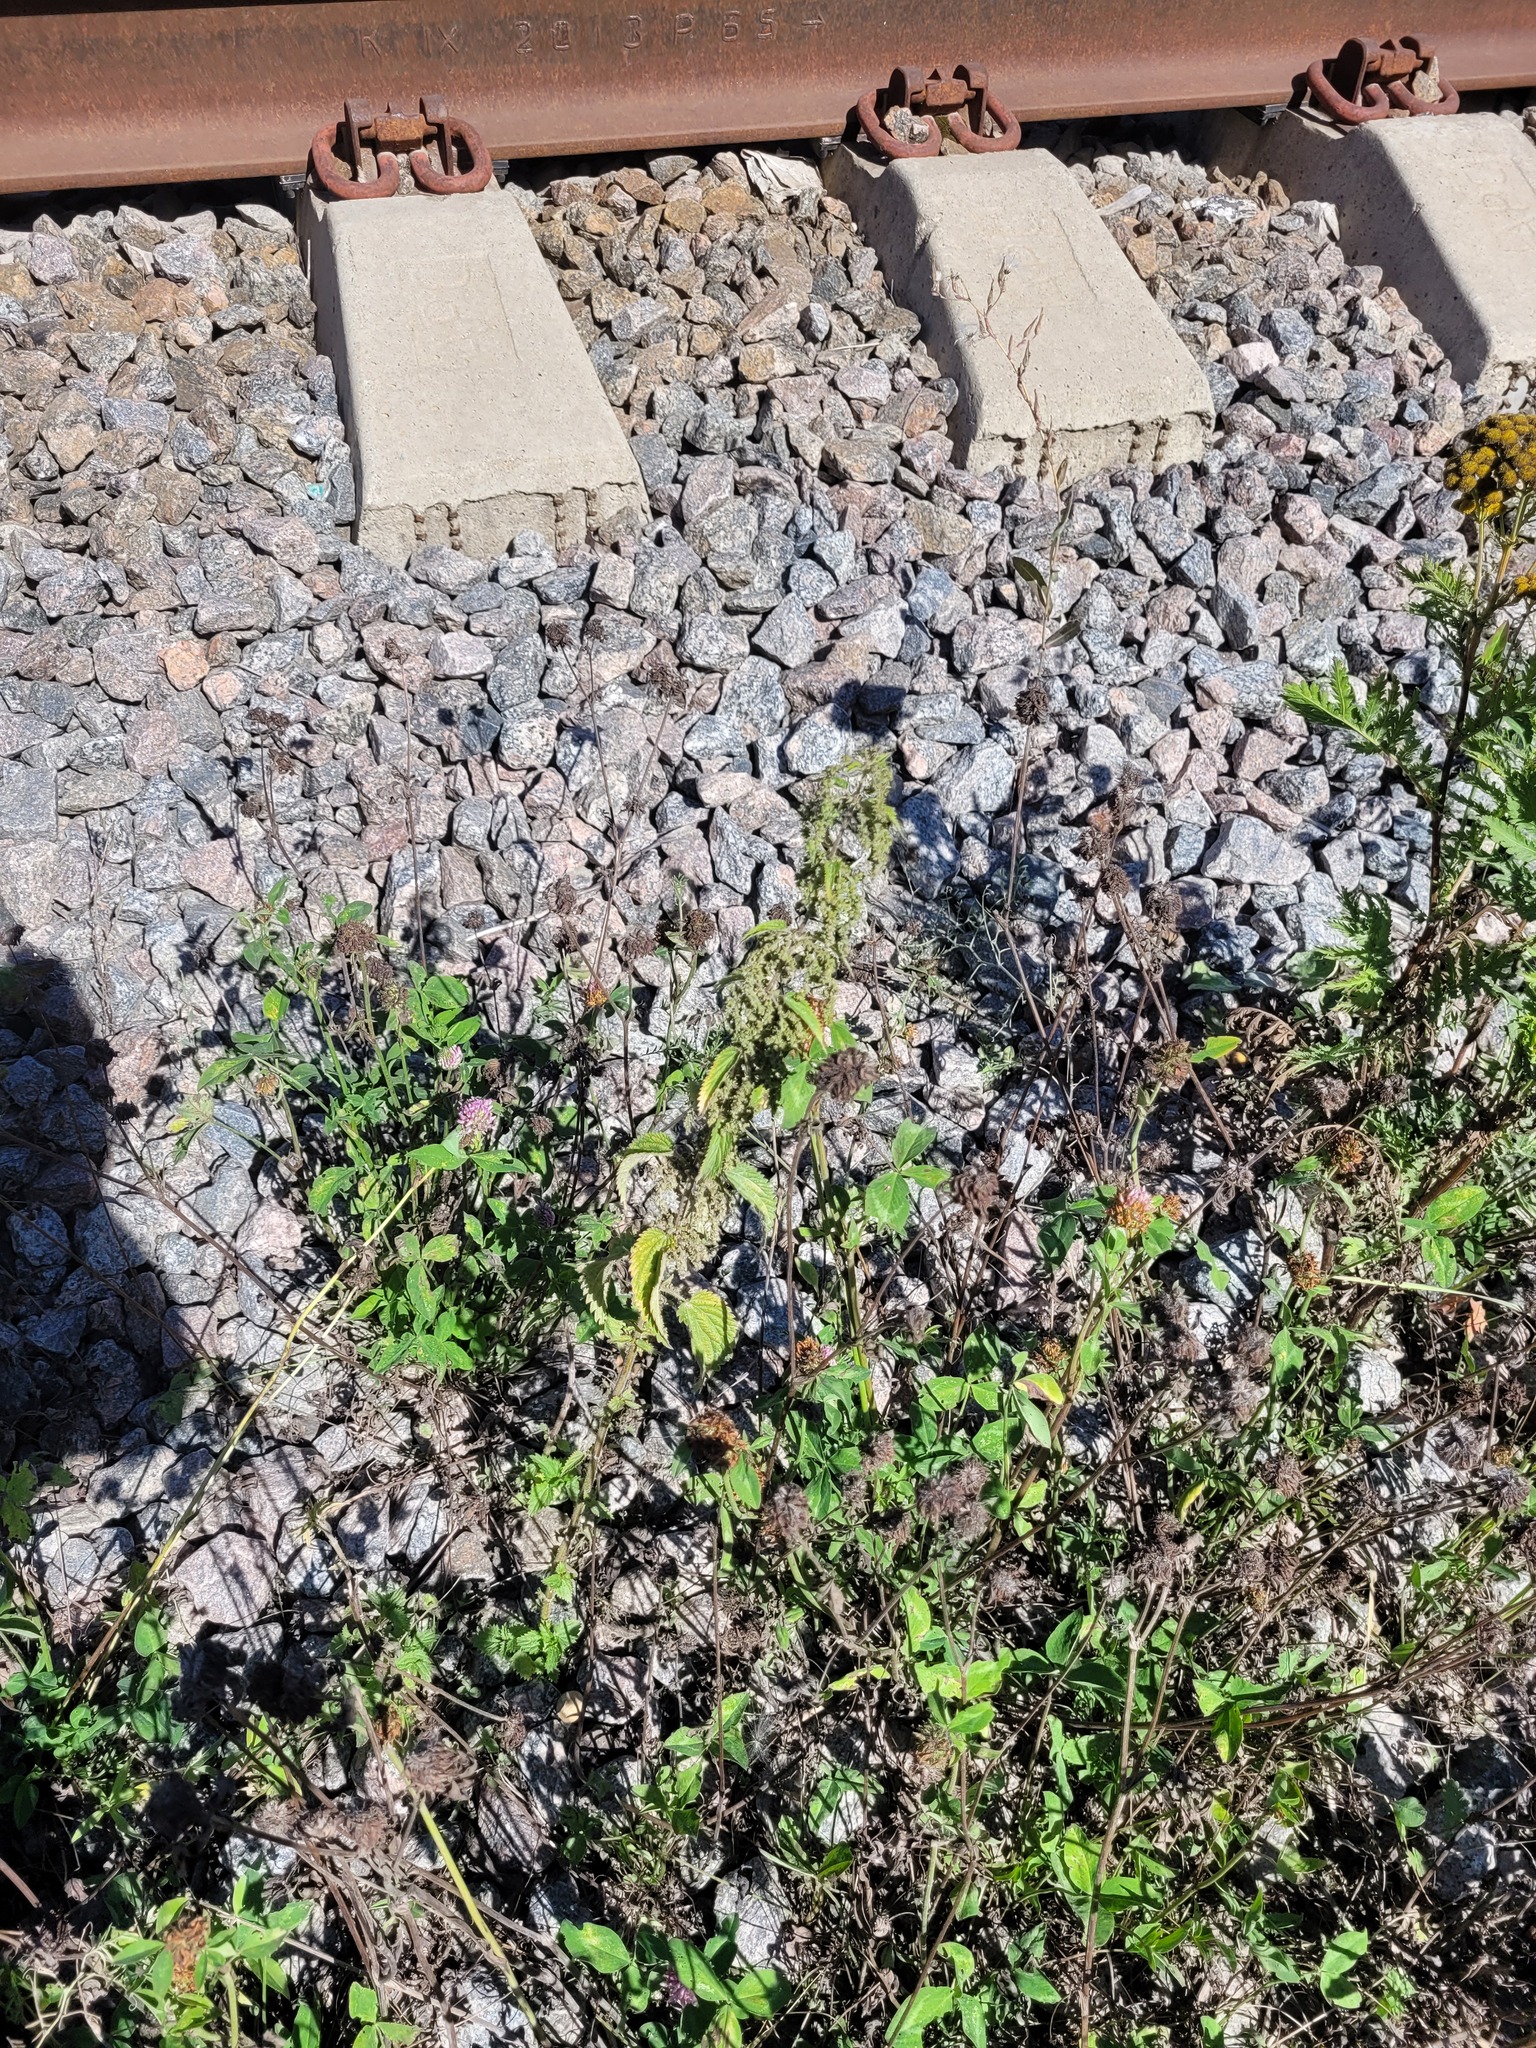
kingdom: Plantae
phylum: Tracheophyta
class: Magnoliopsida
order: Rosales
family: Urticaceae
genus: Urtica
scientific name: Urtica dioica
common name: Common nettle
